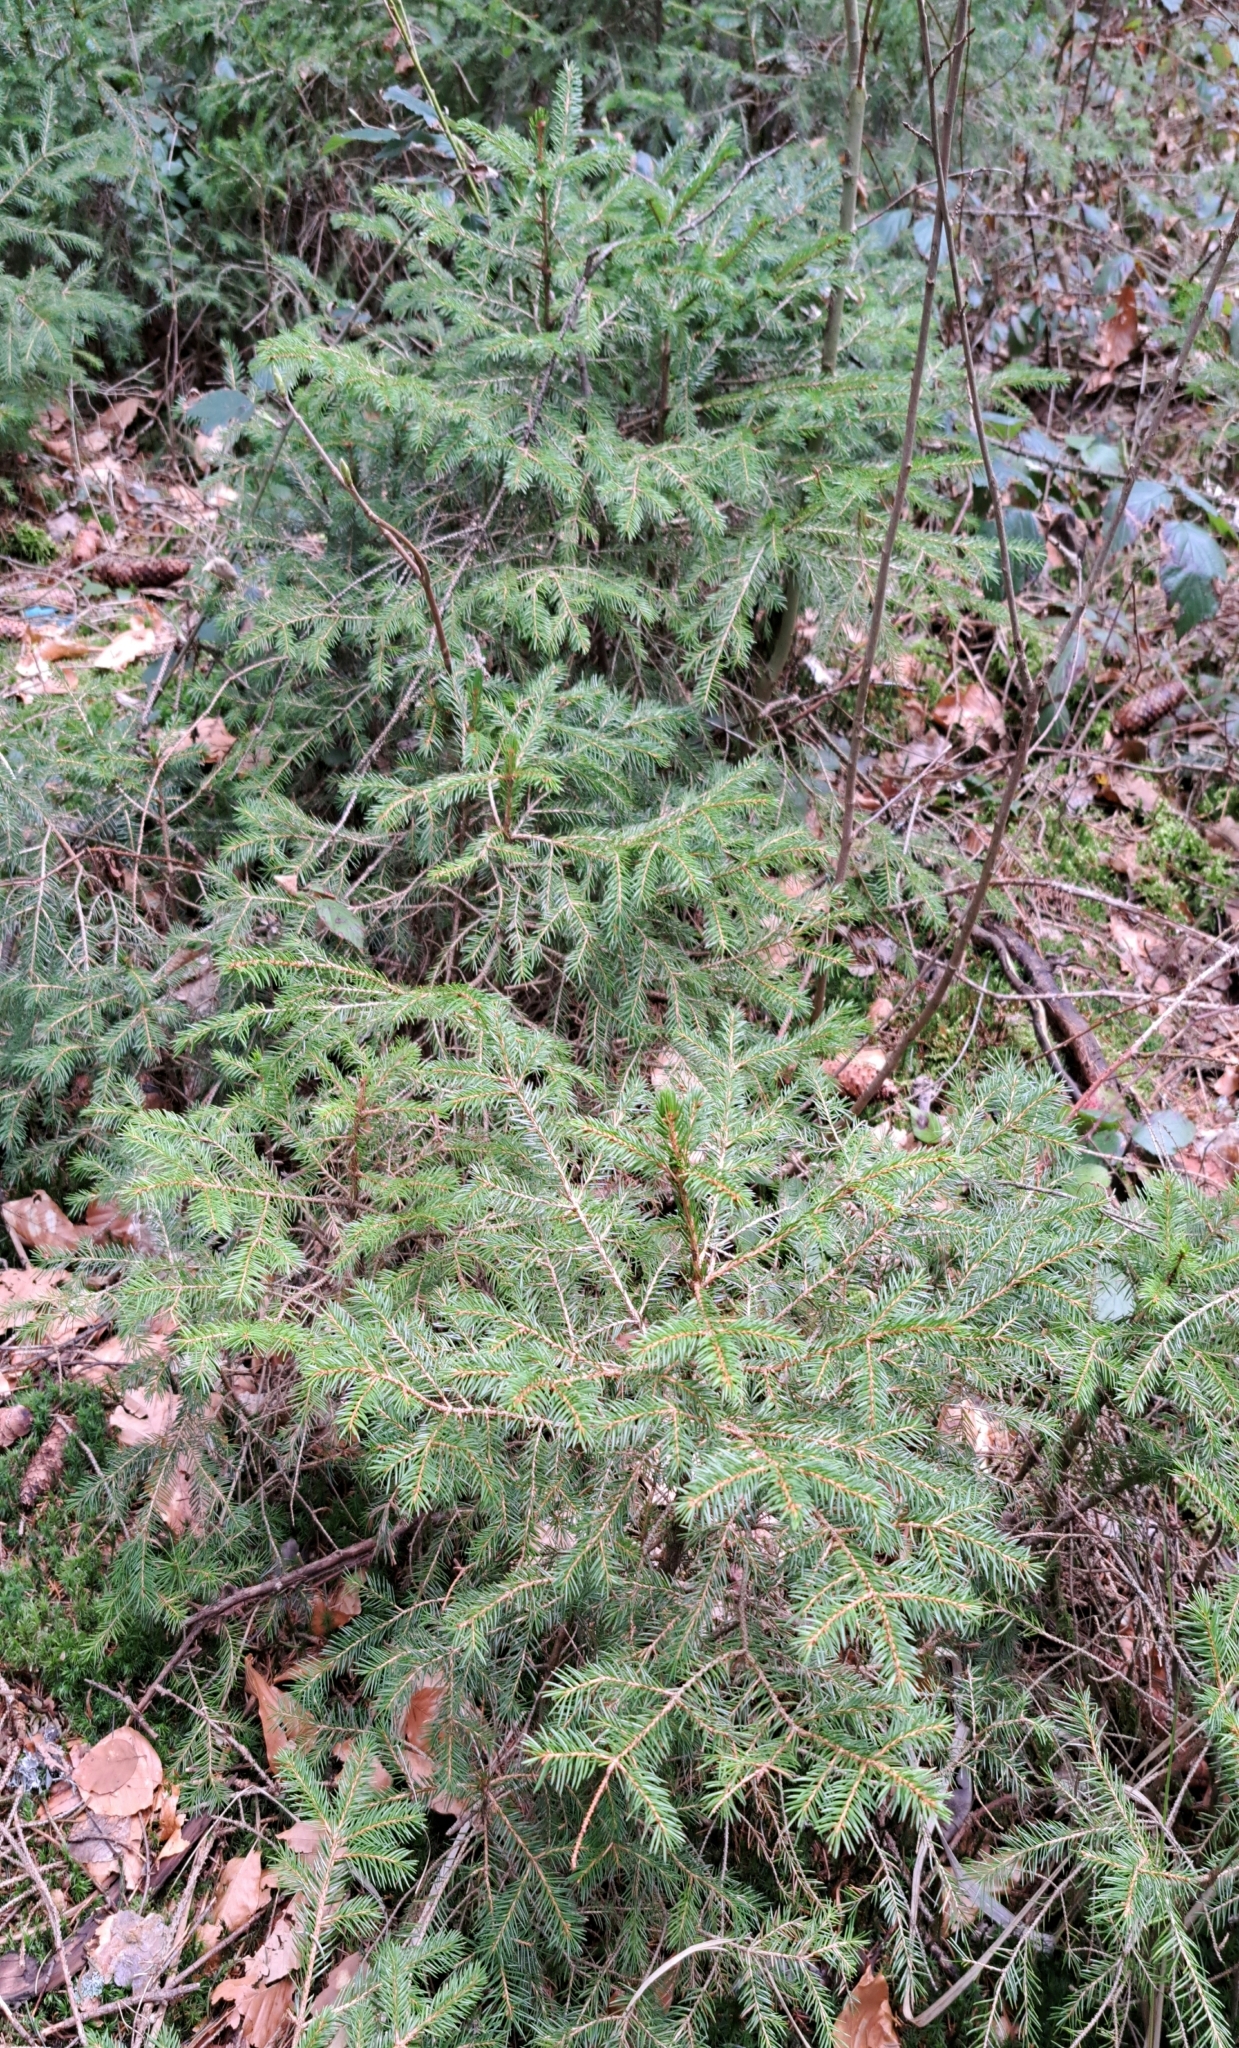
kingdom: Plantae
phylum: Tracheophyta
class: Pinopsida
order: Pinales
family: Pinaceae
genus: Picea
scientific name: Picea abies
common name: Norway spruce
